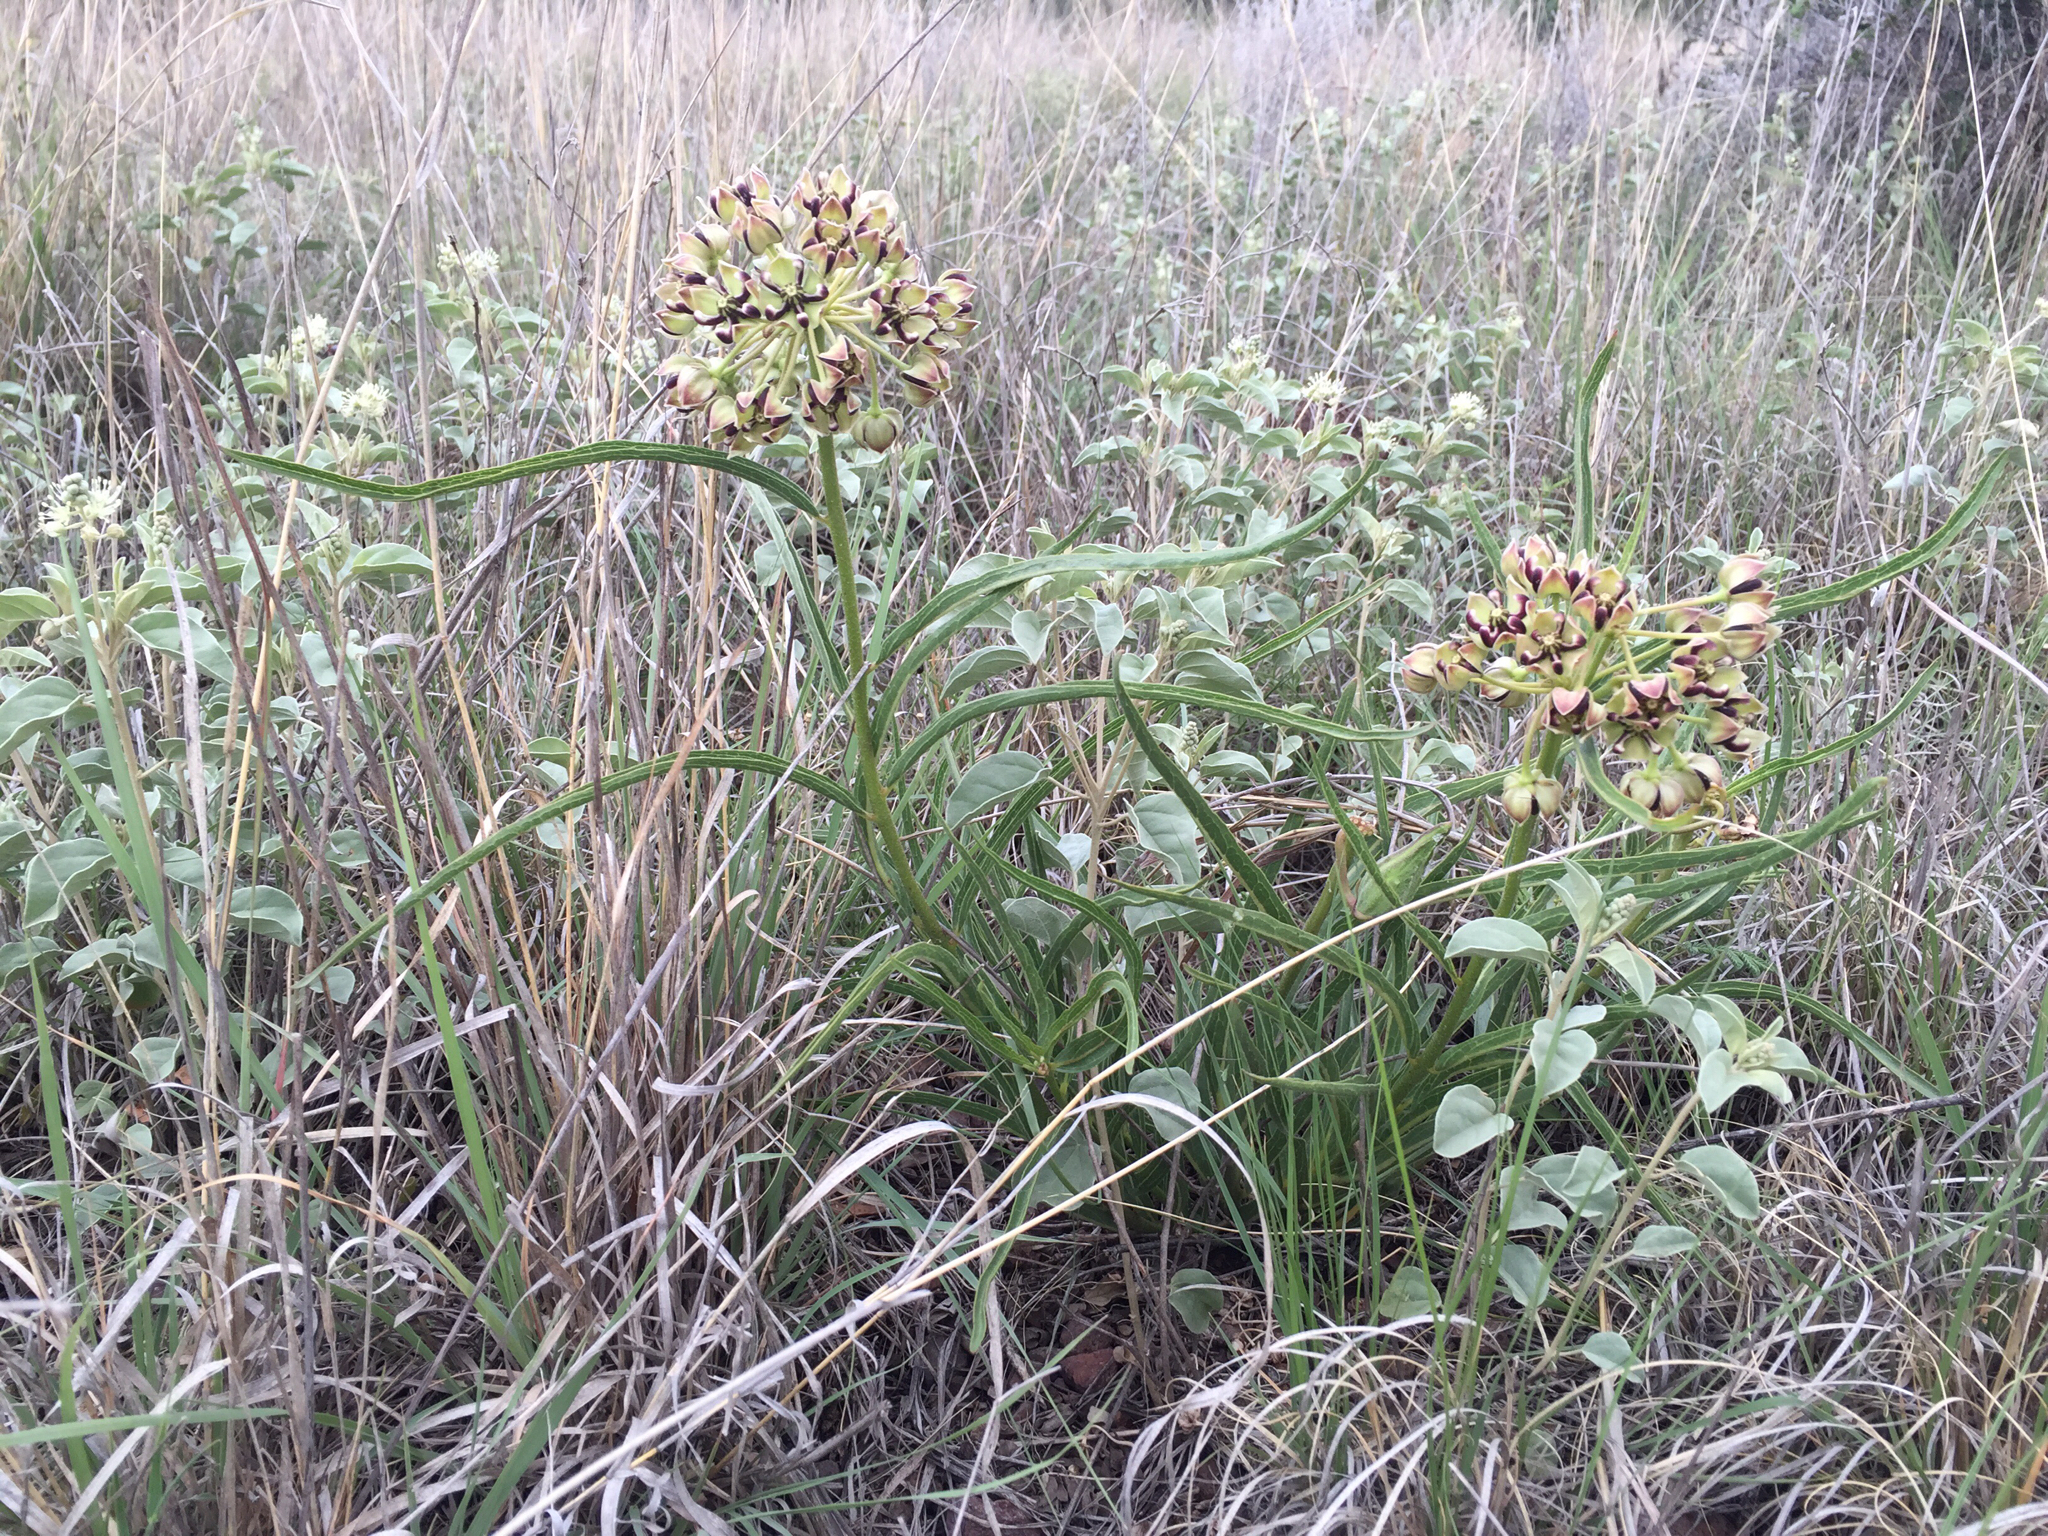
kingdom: Plantae
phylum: Tracheophyta
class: Magnoliopsida
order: Gentianales
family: Apocynaceae
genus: Asclepias
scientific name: Asclepias asperula
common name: Antelope horns
